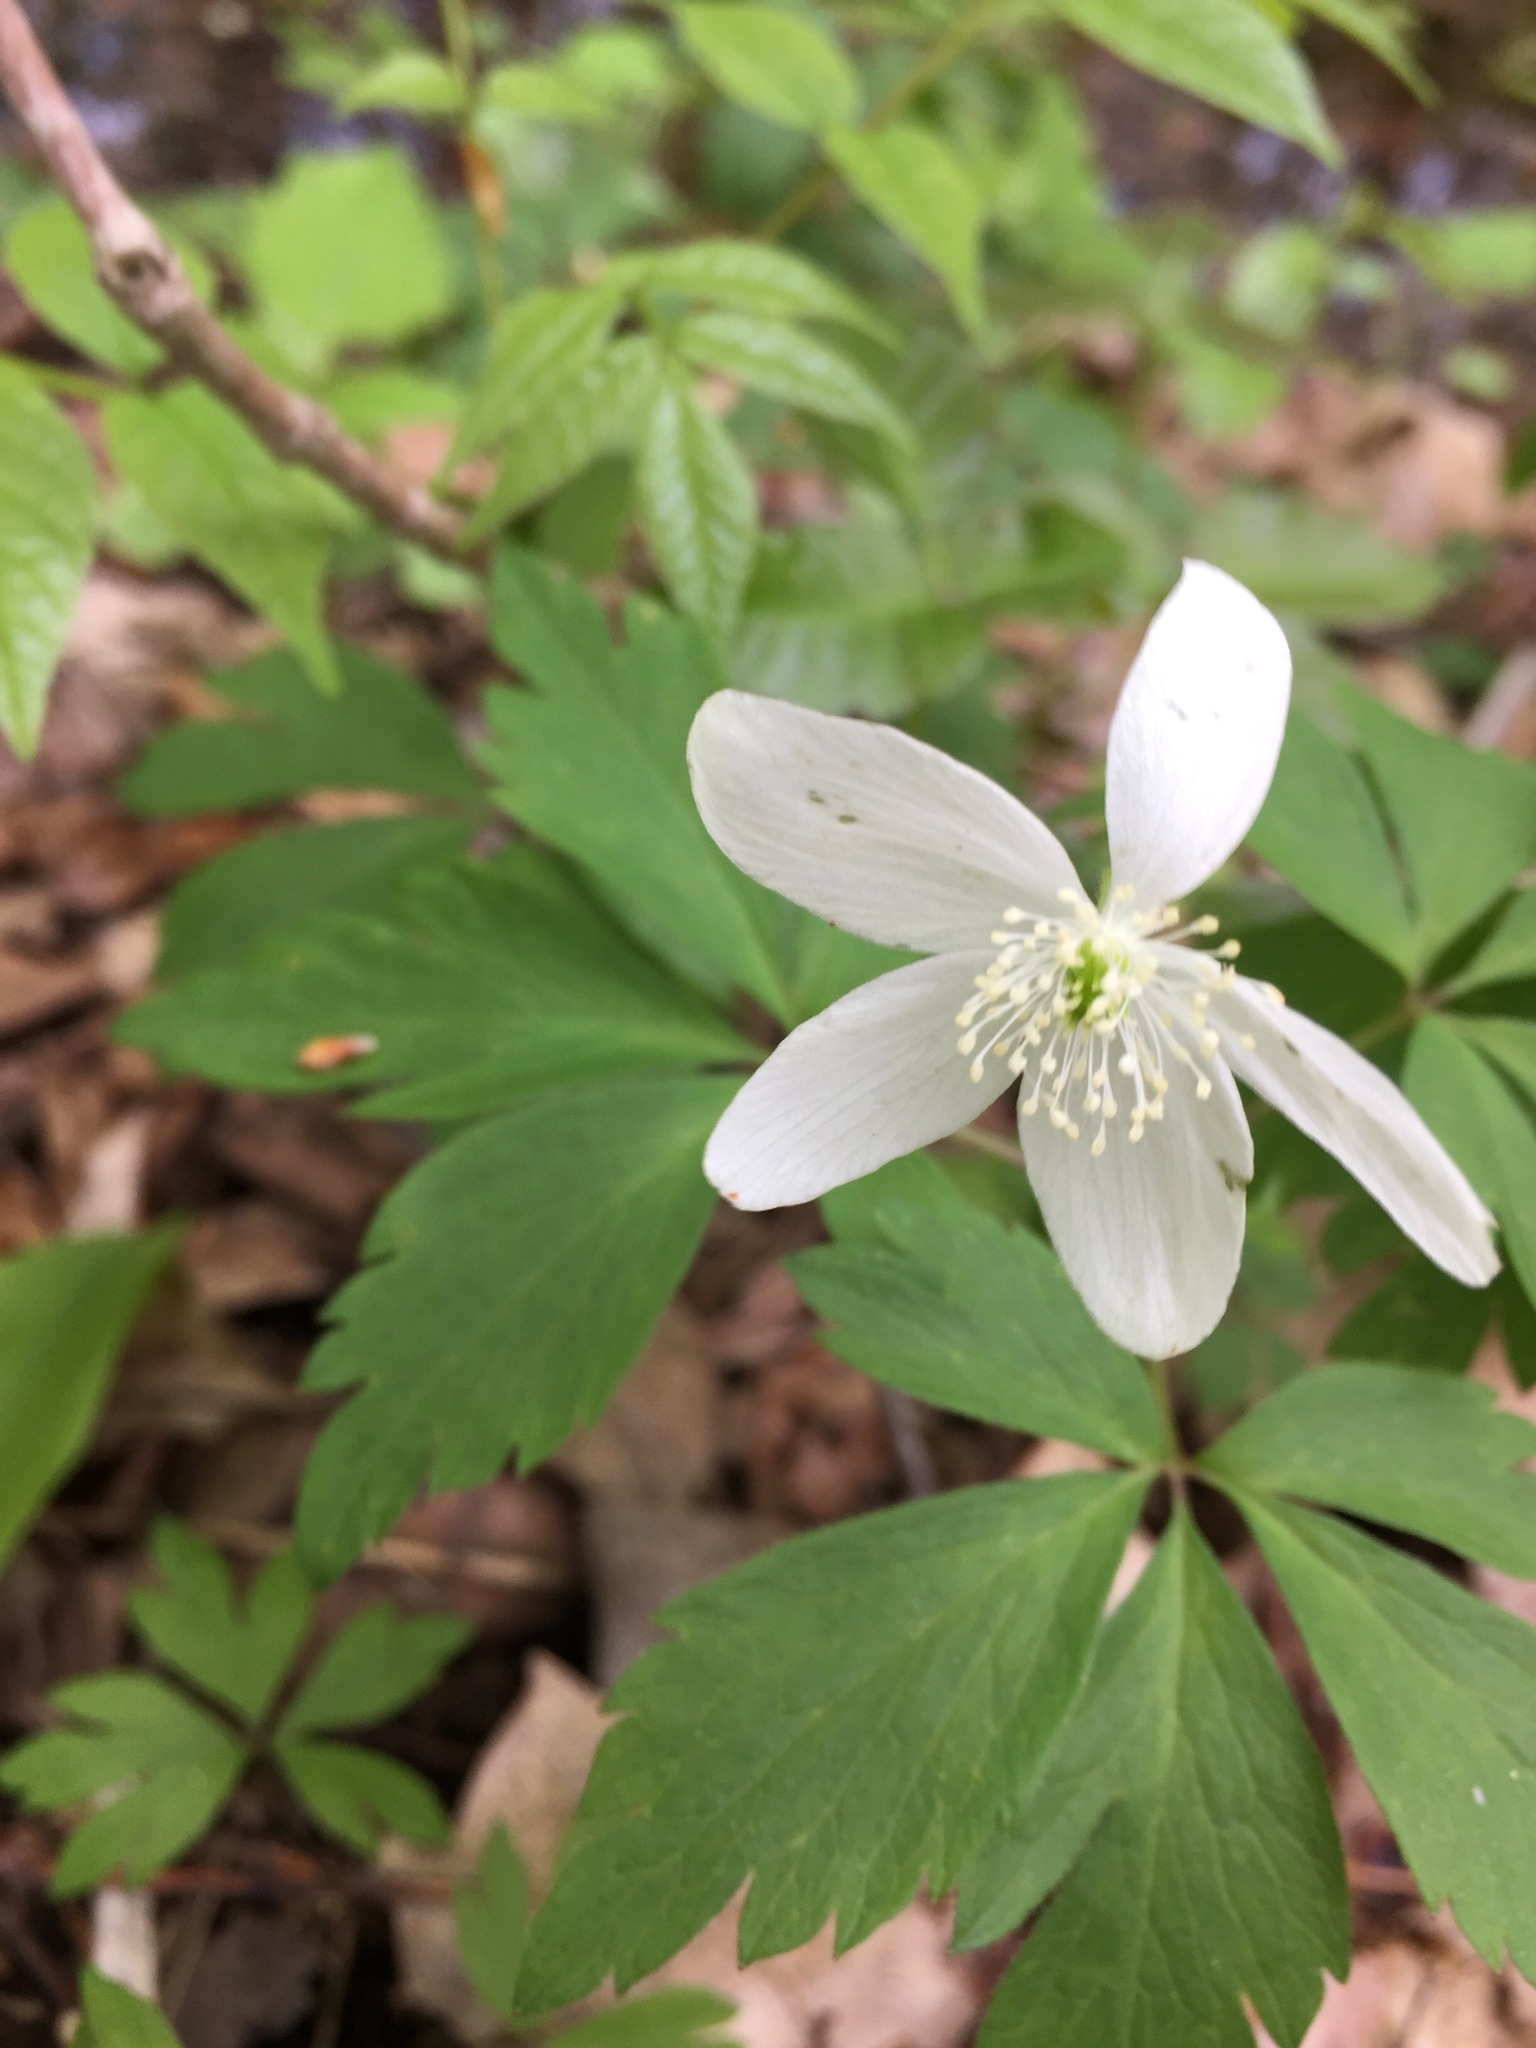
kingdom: Plantae
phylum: Tracheophyta
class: Magnoliopsida
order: Ranunculales
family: Ranunculaceae
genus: Anemone
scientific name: Anemone quinquefolia
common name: Wood anemone
